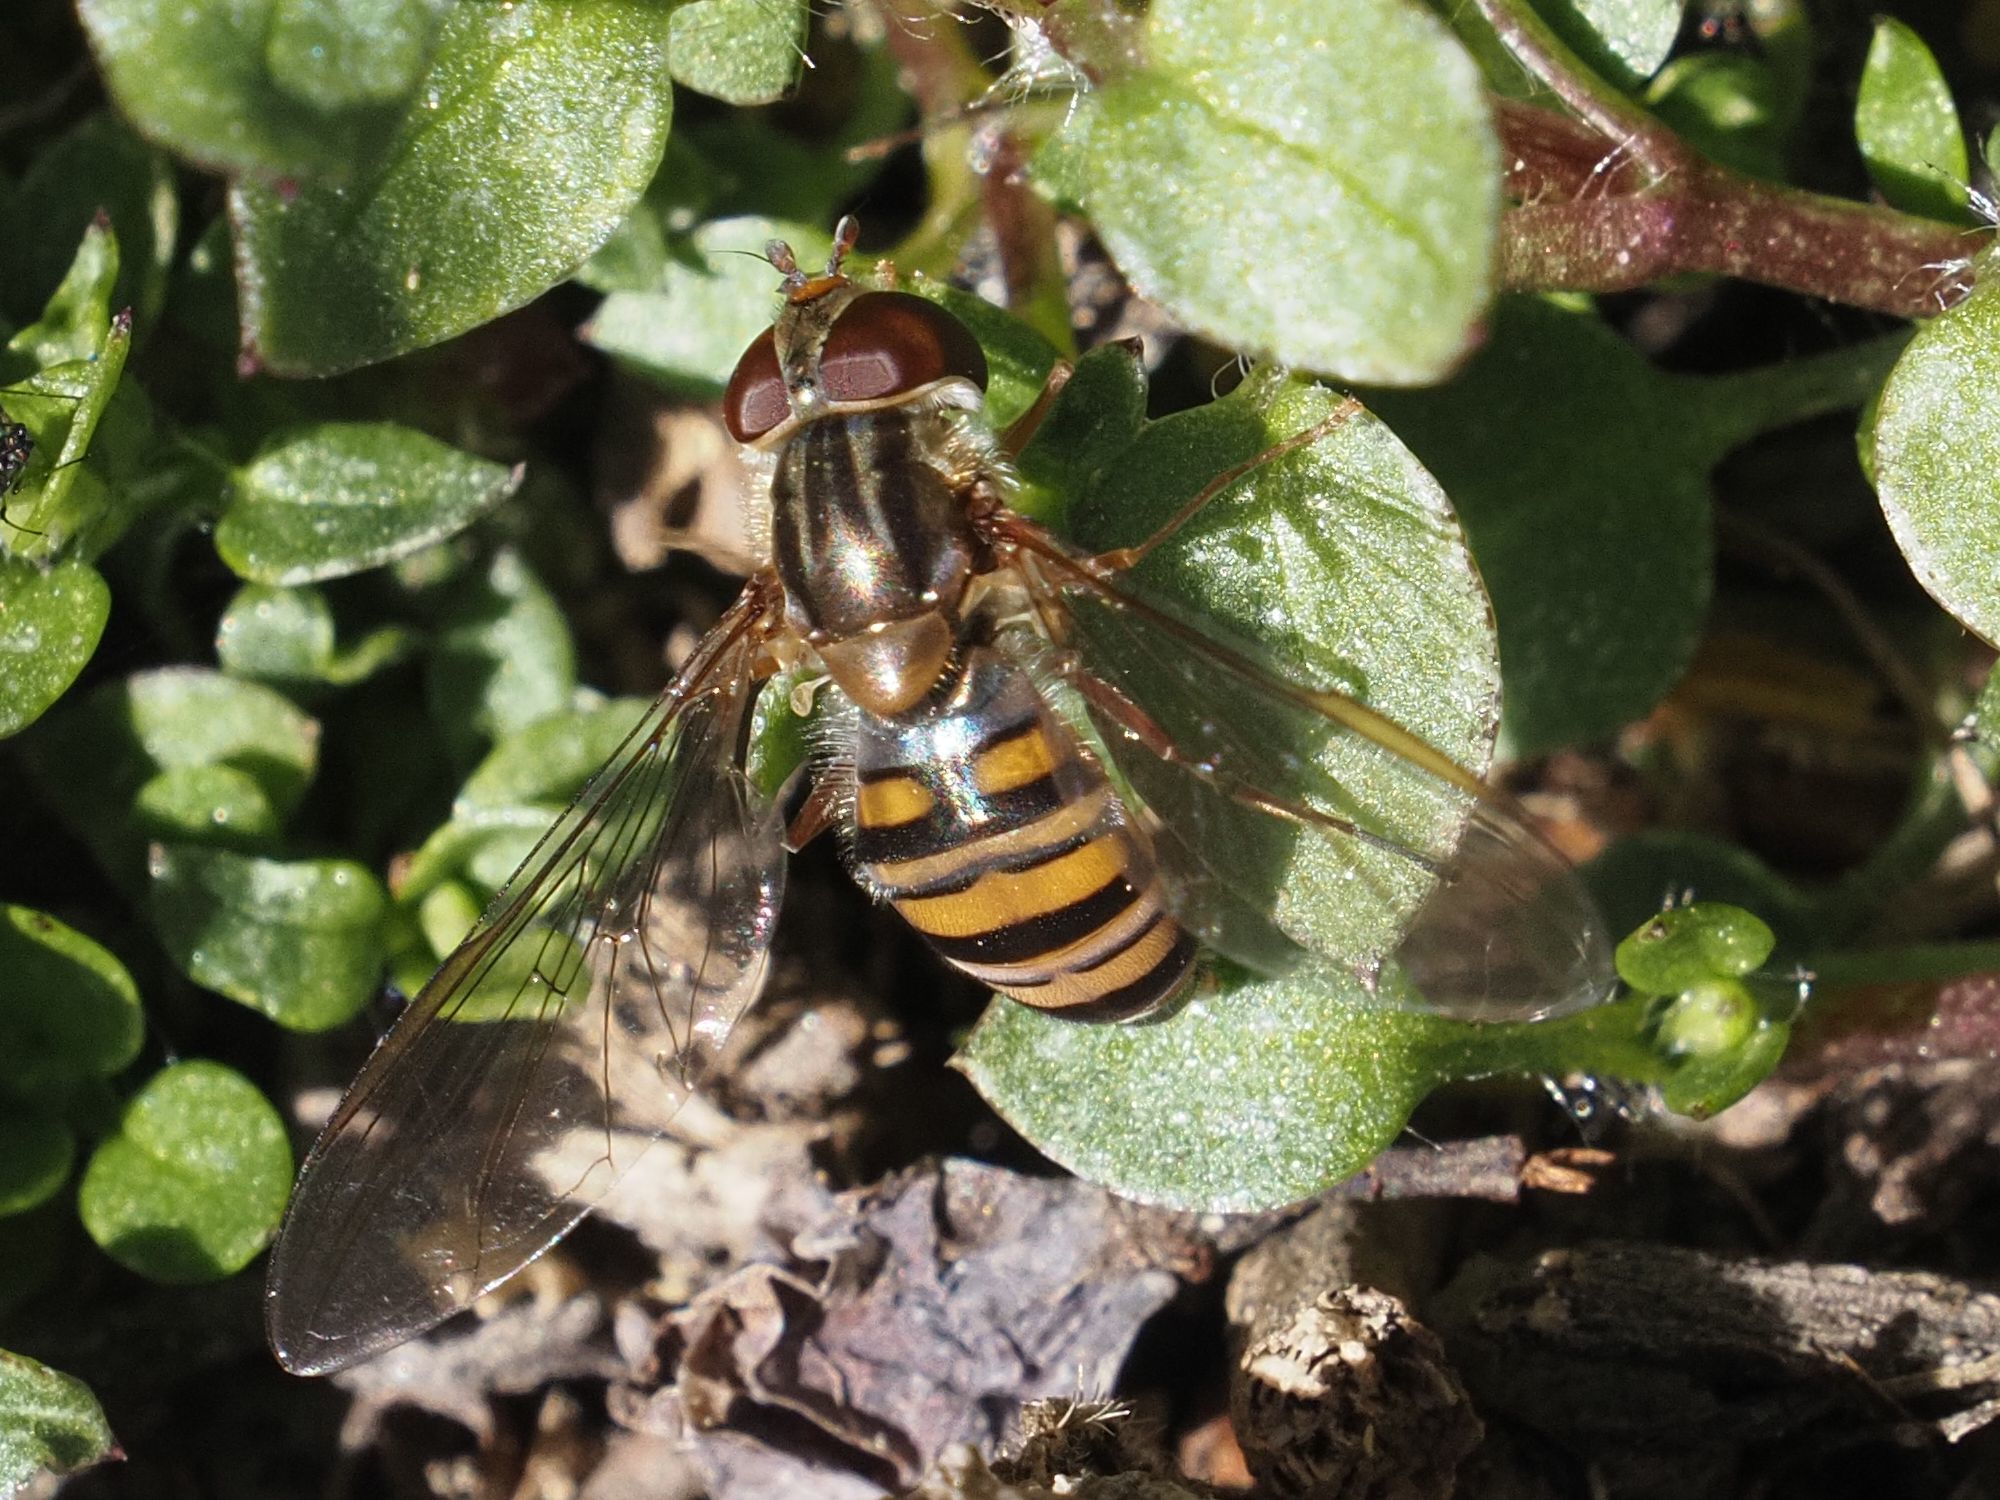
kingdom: Animalia
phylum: Arthropoda
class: Insecta
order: Diptera
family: Syrphidae
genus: Episyrphus
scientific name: Episyrphus balteatus
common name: Marmalade hoverfly
